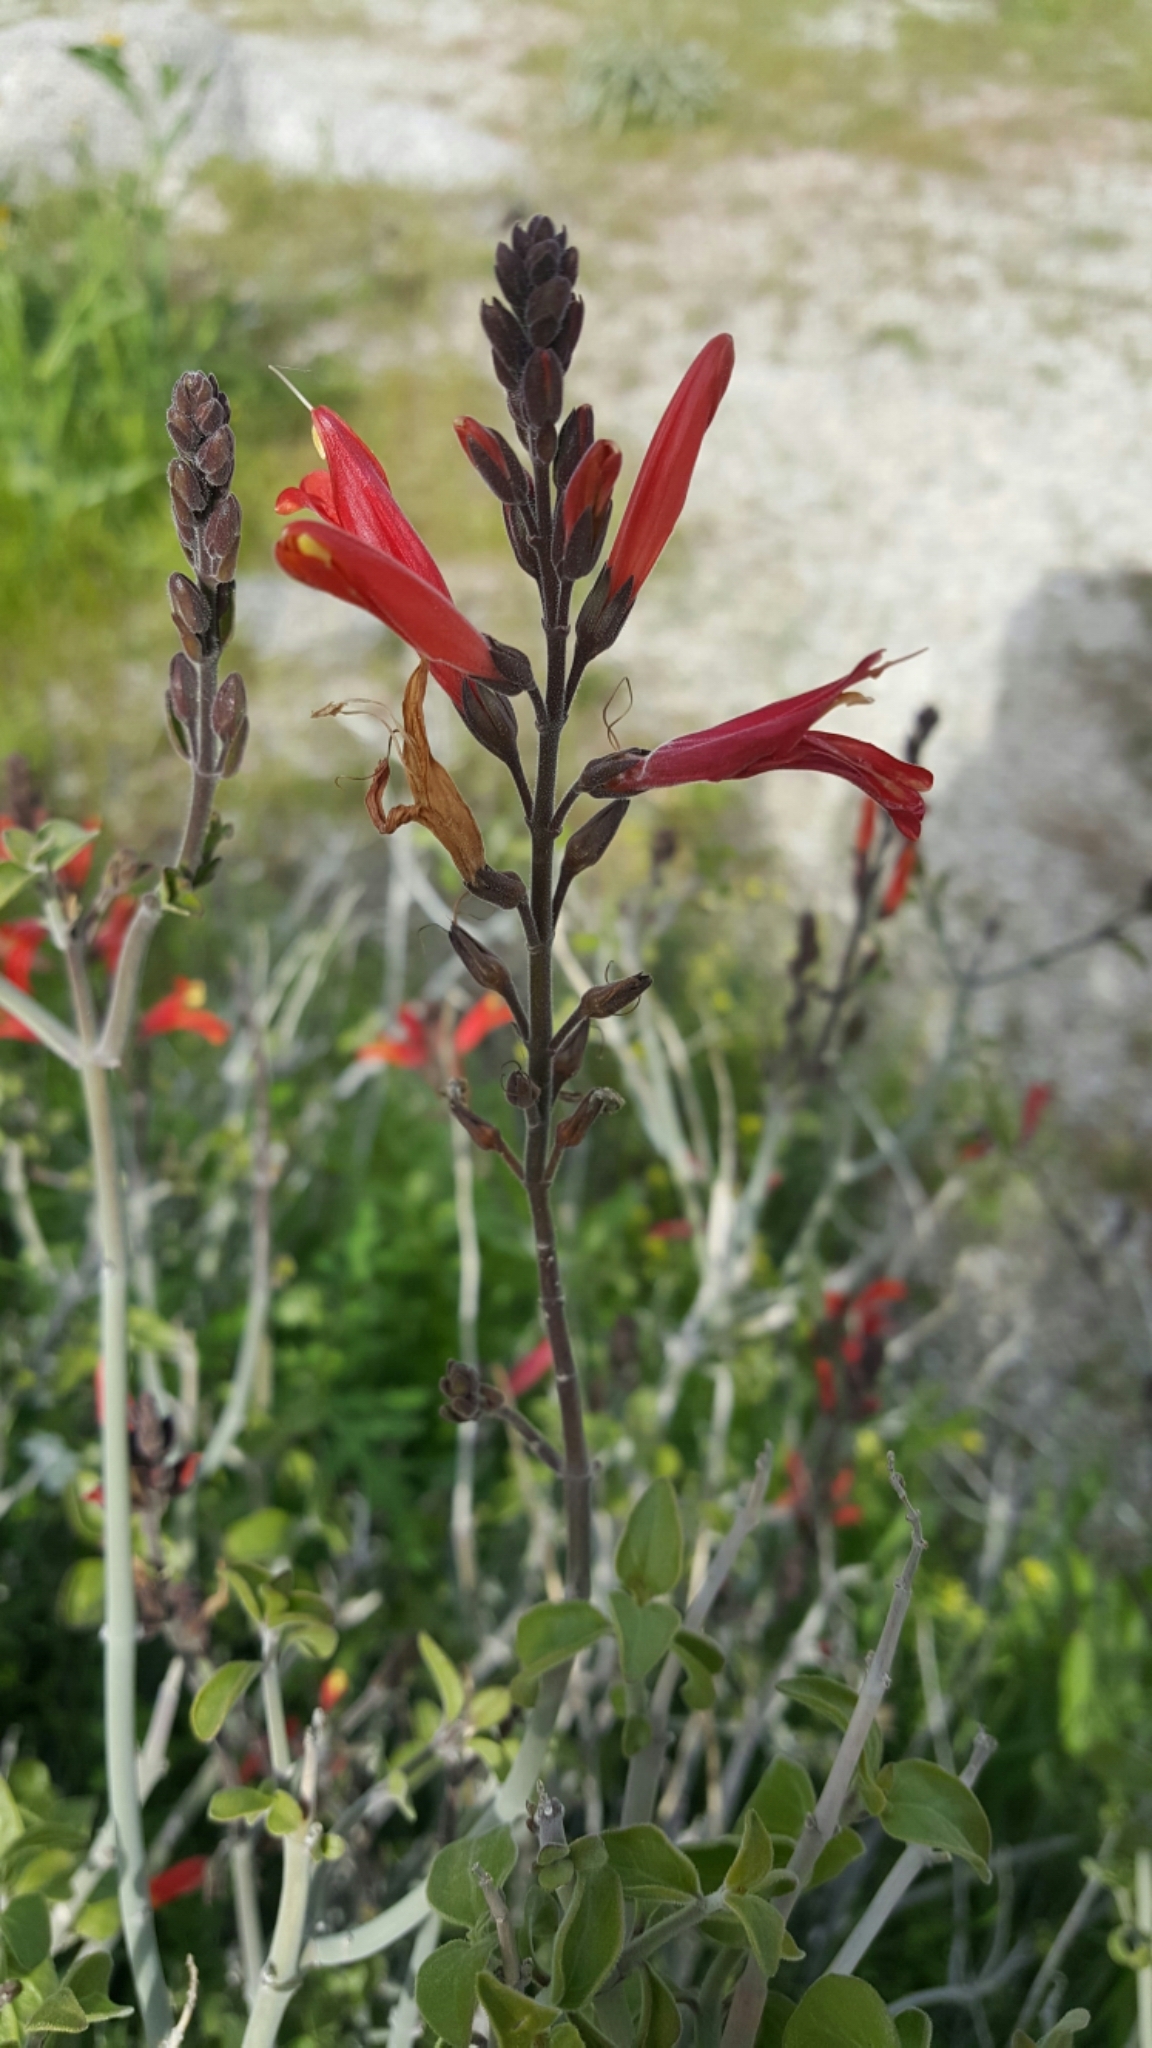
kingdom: Plantae
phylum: Tracheophyta
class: Magnoliopsida
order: Lamiales
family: Acanthaceae
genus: Justicia
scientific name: Justicia californica
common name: Chuparosa-honeysuckle
